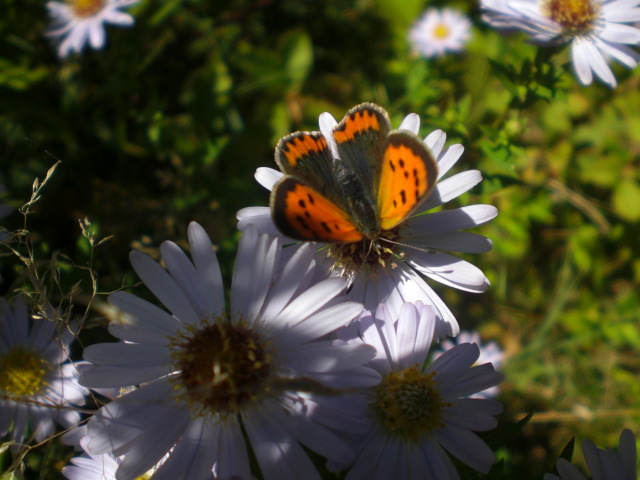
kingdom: Animalia
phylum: Arthropoda
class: Insecta
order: Lepidoptera
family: Lycaenidae
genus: Lycaena
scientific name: Lycaena phlaeas
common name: Small copper
